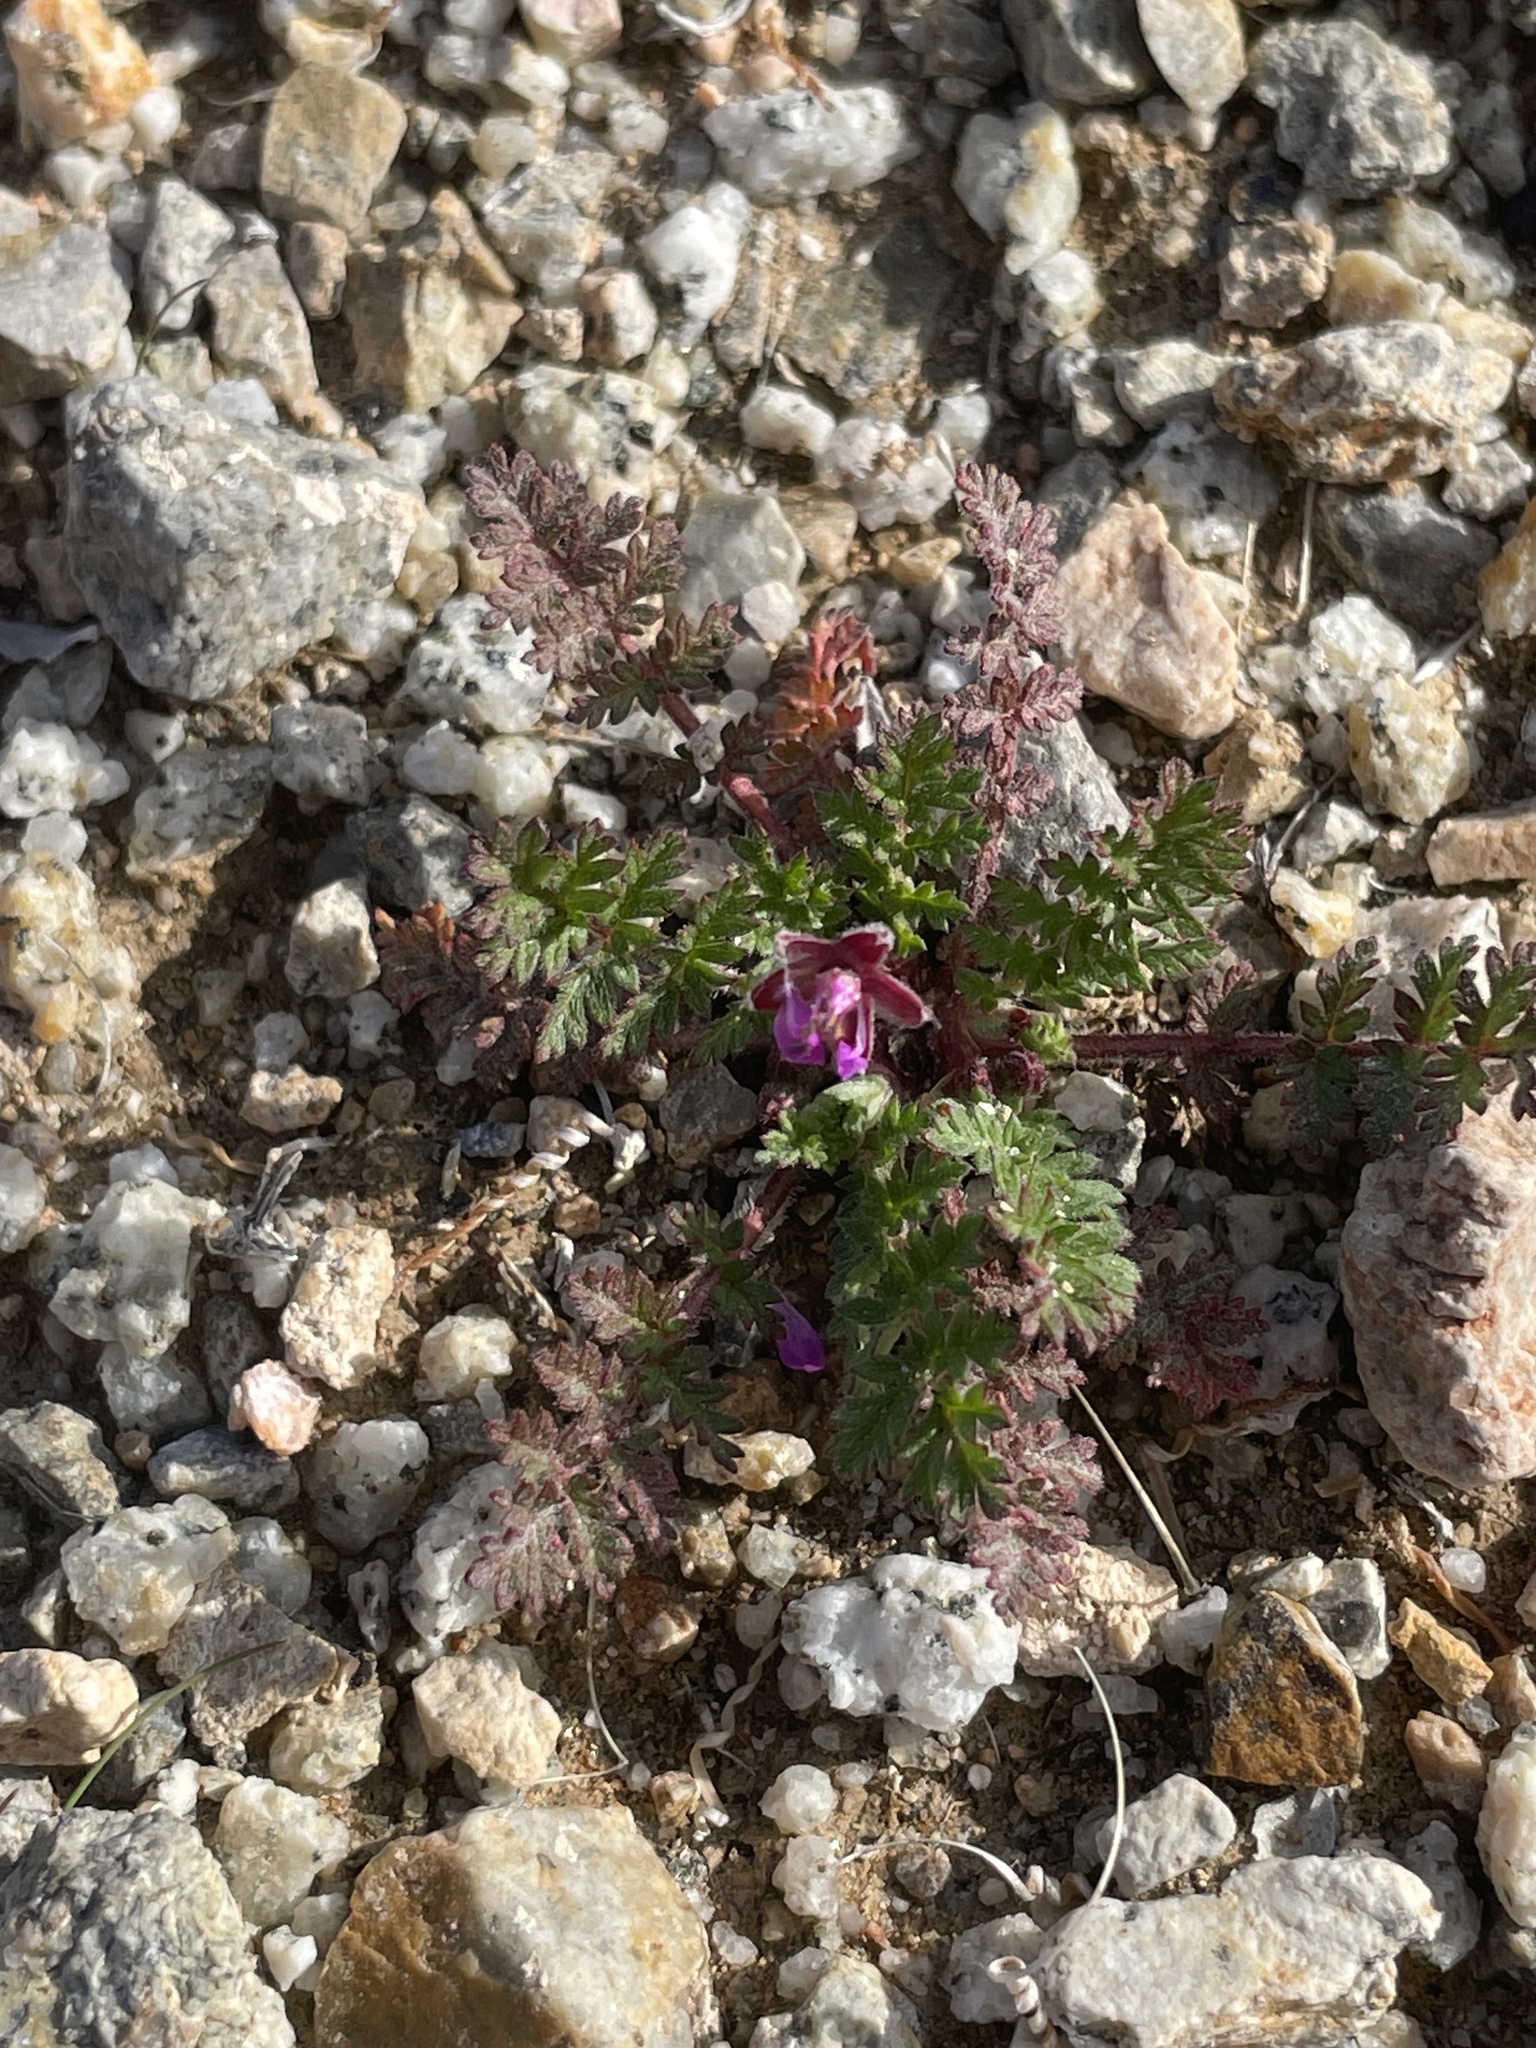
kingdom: Plantae
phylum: Tracheophyta
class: Magnoliopsida
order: Geraniales
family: Geraniaceae
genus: Erodium
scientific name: Erodium cicutarium
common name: Common stork's-bill
